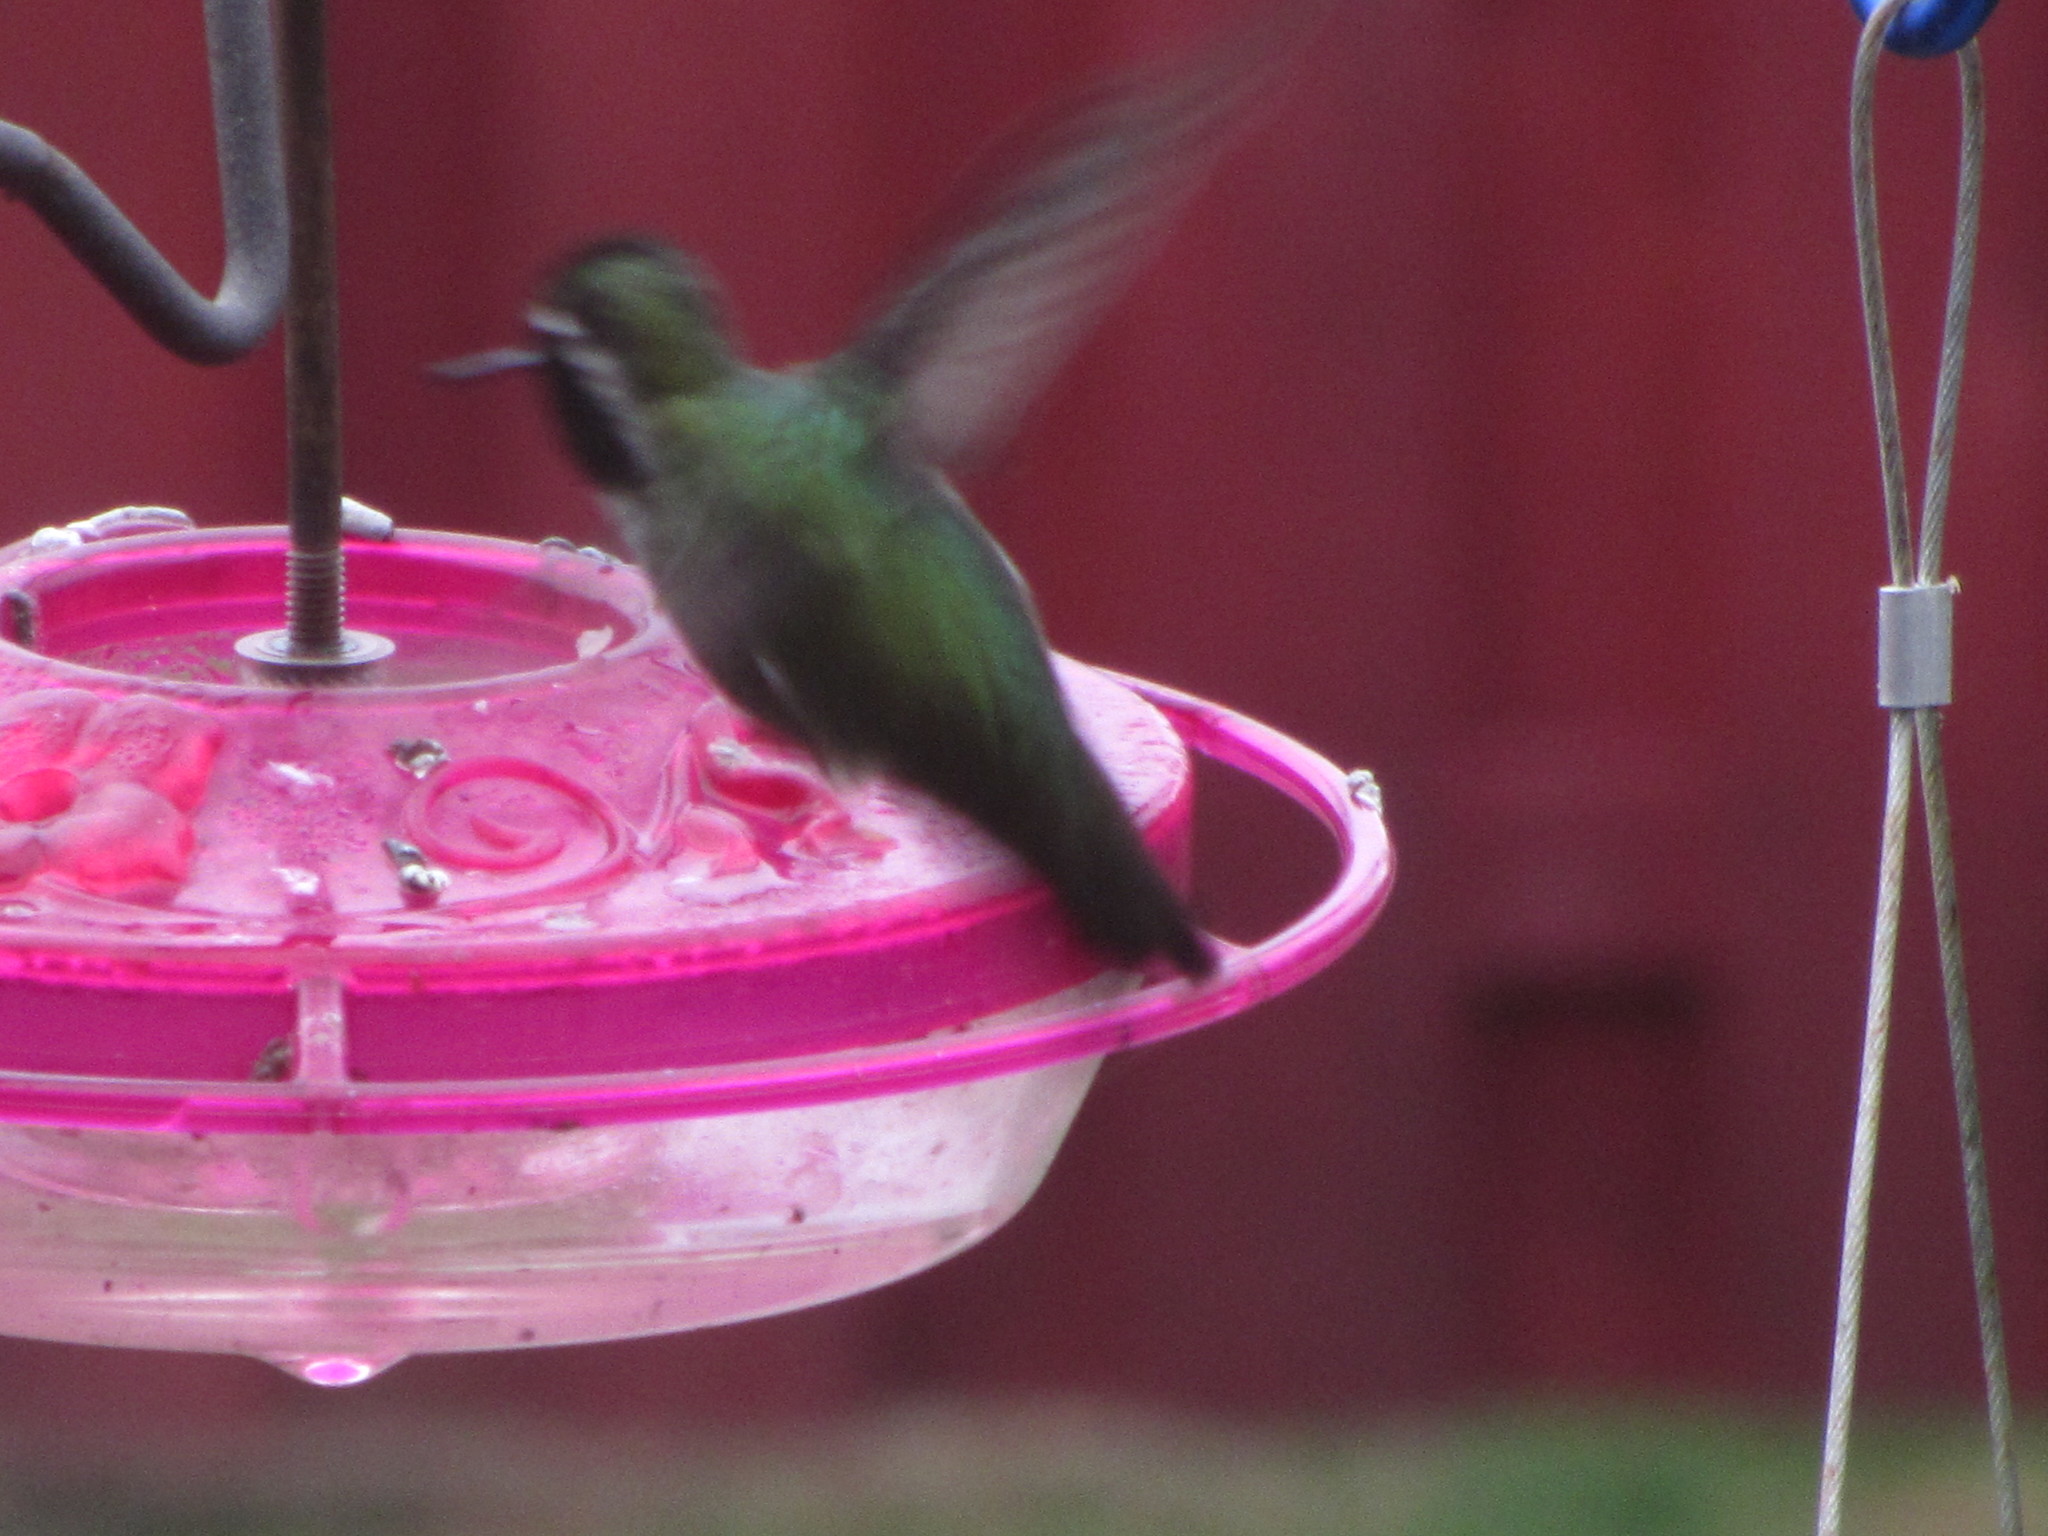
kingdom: Animalia
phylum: Chordata
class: Aves
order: Apodiformes
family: Trochilidae
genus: Calypte
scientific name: Calypte anna
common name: Anna's hummingbird
